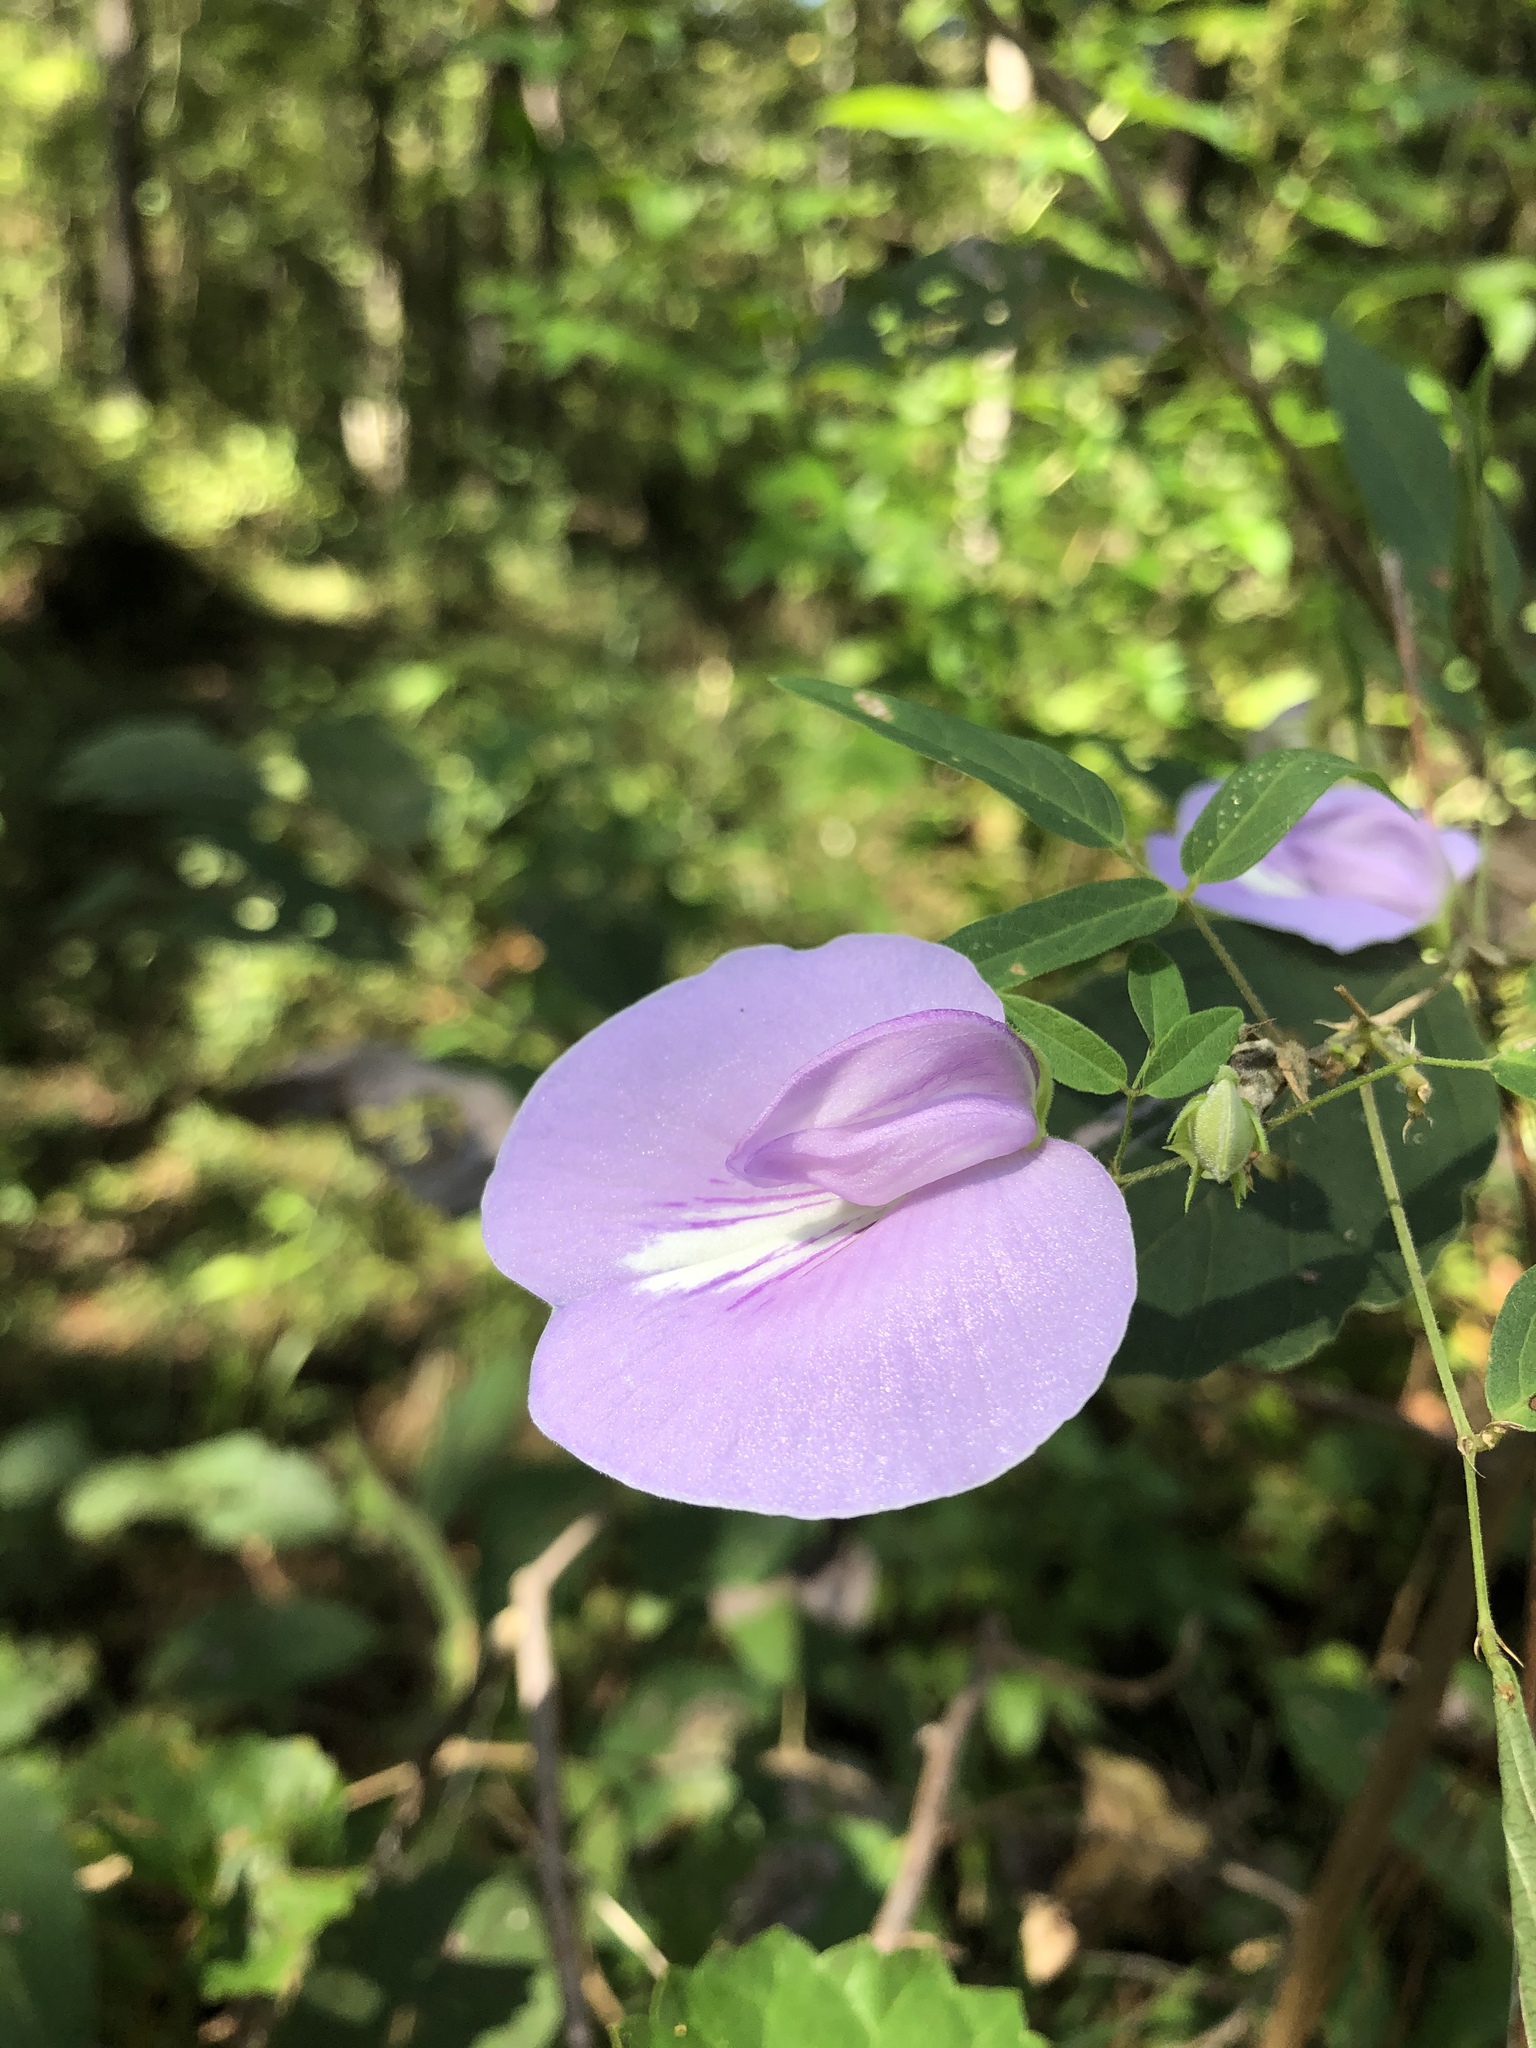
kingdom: Plantae
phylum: Tracheophyta
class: Magnoliopsida
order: Fabales
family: Fabaceae
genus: Centrosema
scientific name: Centrosema virginianum
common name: Butterfly-pea
